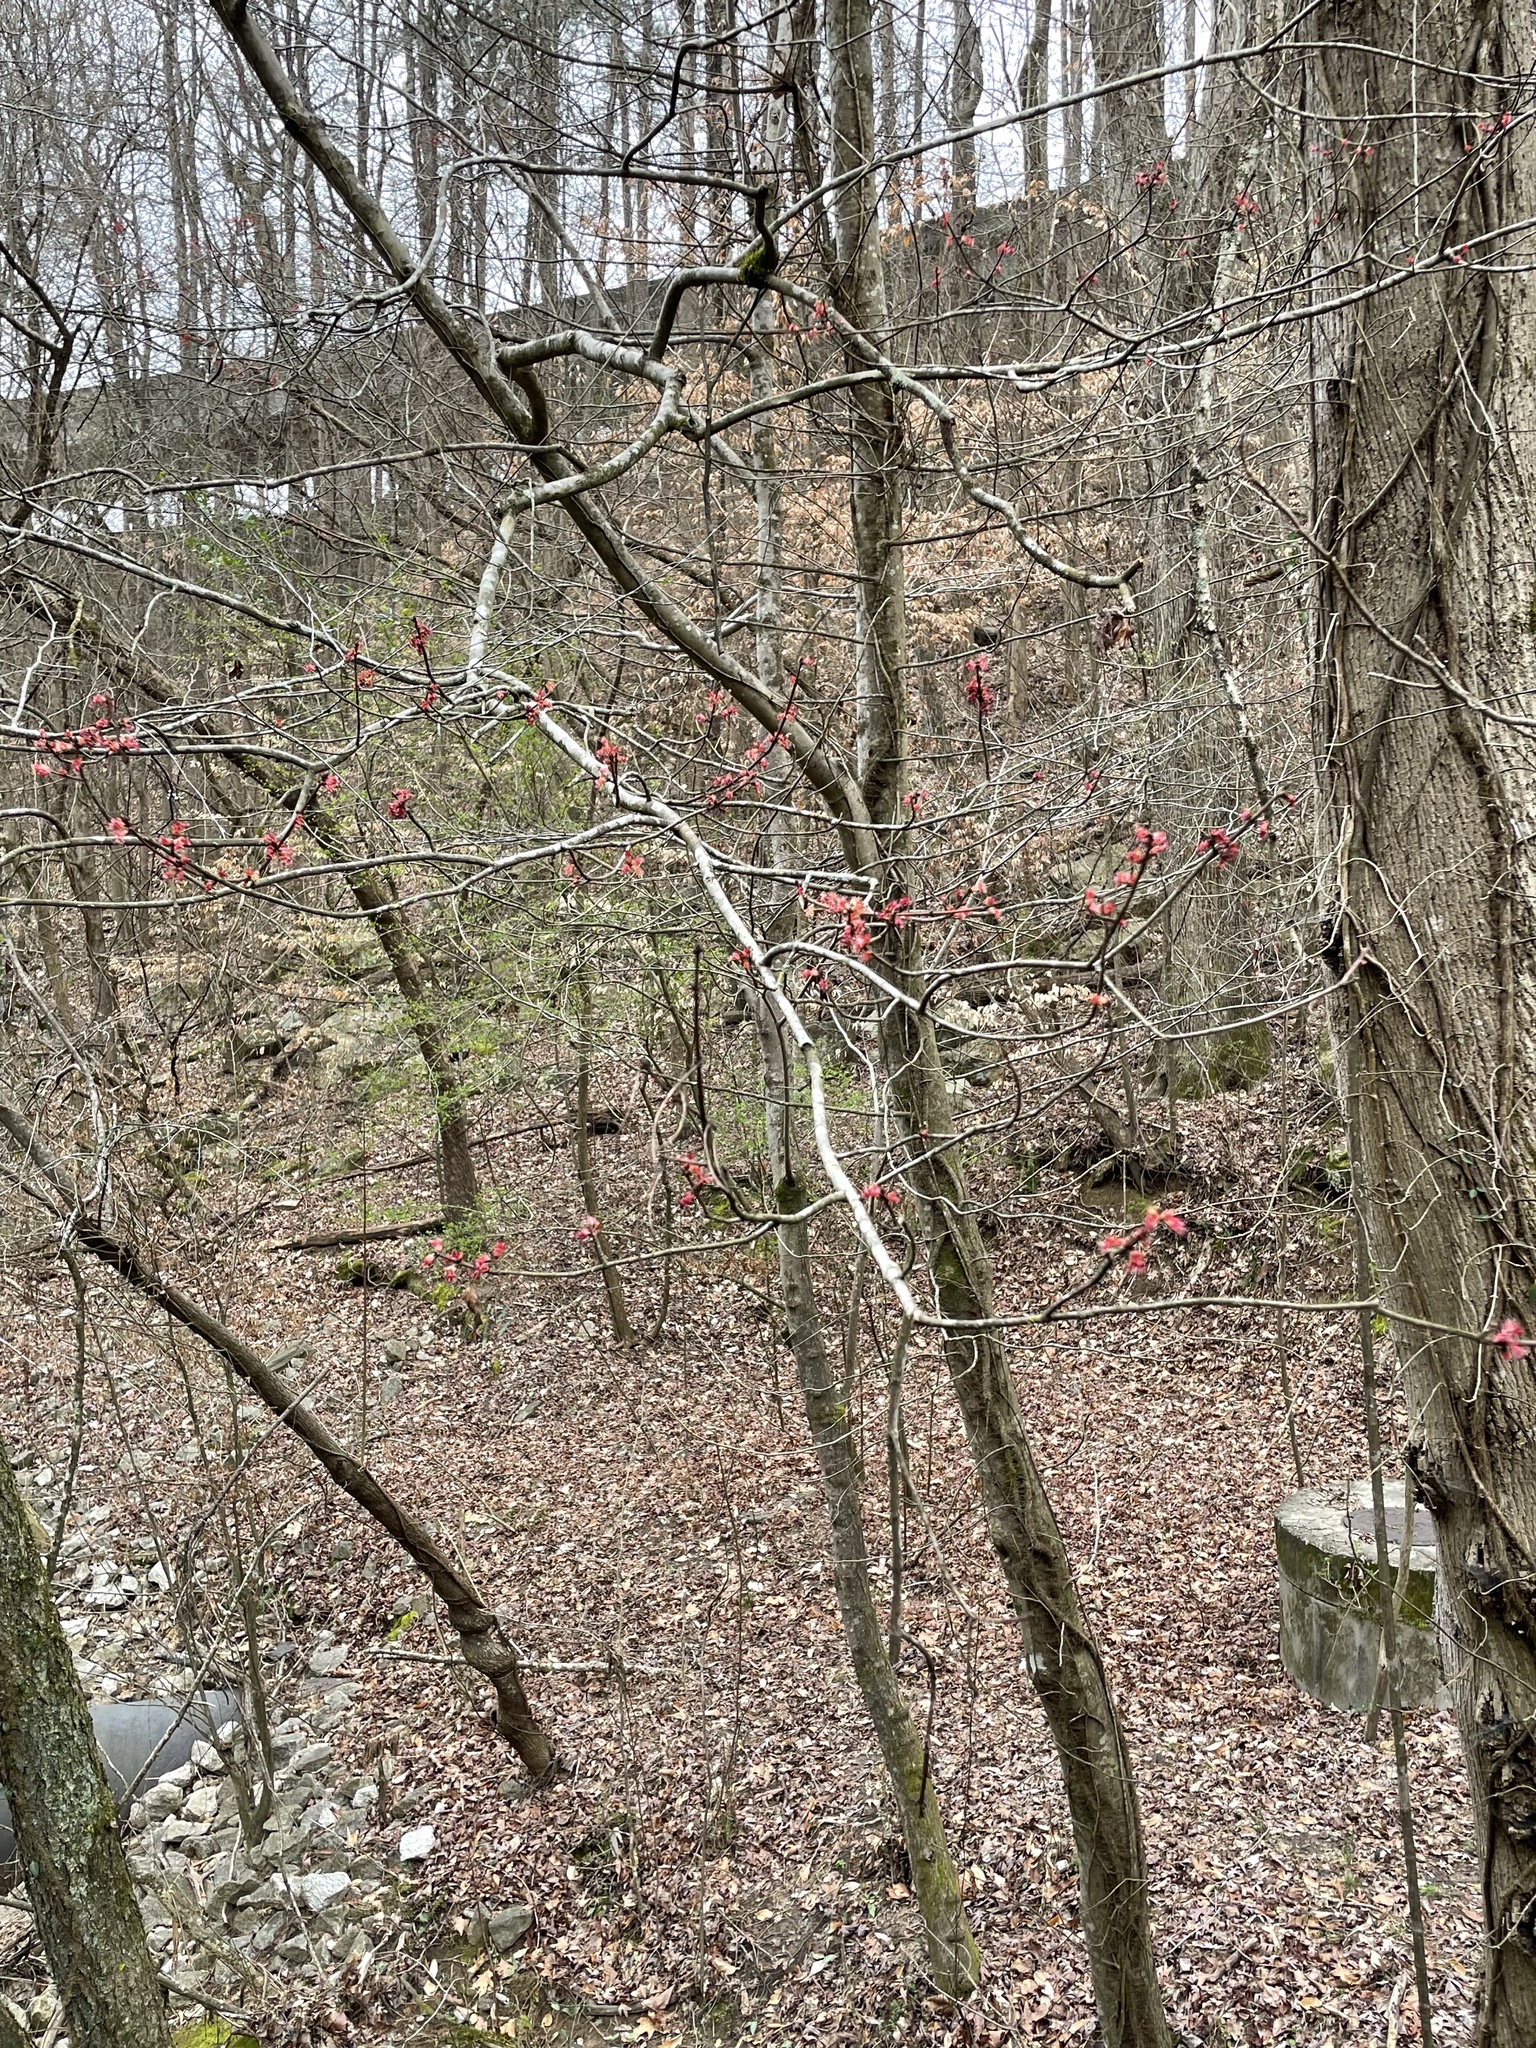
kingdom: Plantae
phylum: Tracheophyta
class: Magnoliopsida
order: Sapindales
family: Sapindaceae
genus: Acer
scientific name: Acer rubrum
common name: Red maple
